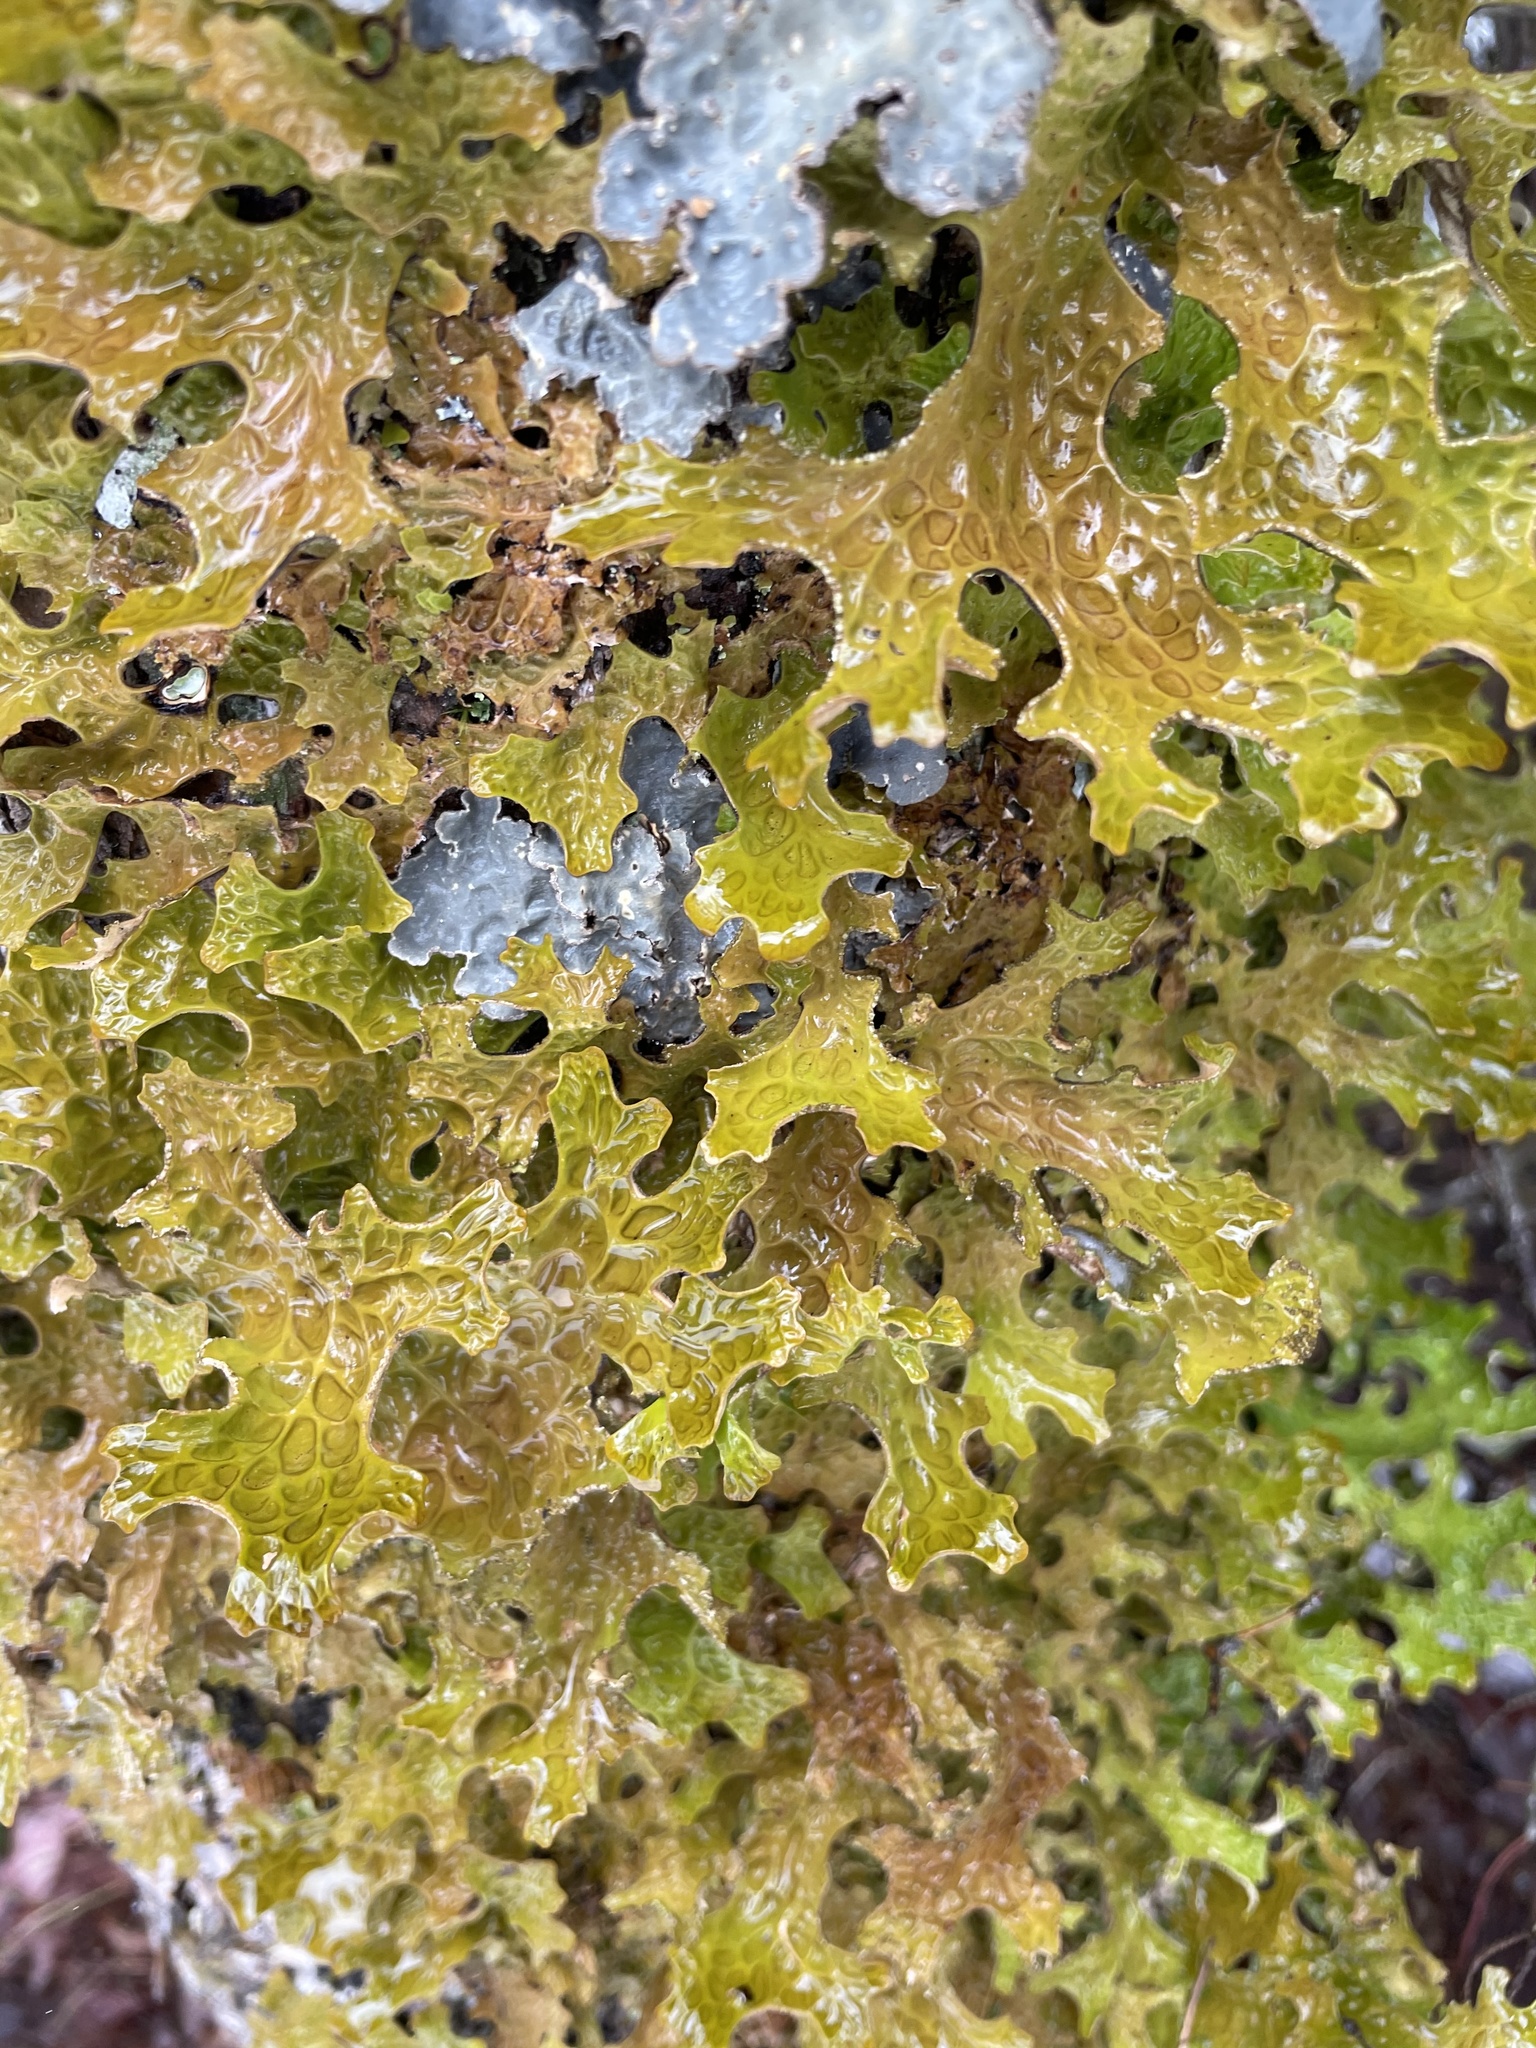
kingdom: Fungi
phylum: Ascomycota
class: Lecanoromycetes
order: Peltigerales
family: Lobariaceae
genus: Lobaria
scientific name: Lobaria pulmonaria
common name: Lungwort
